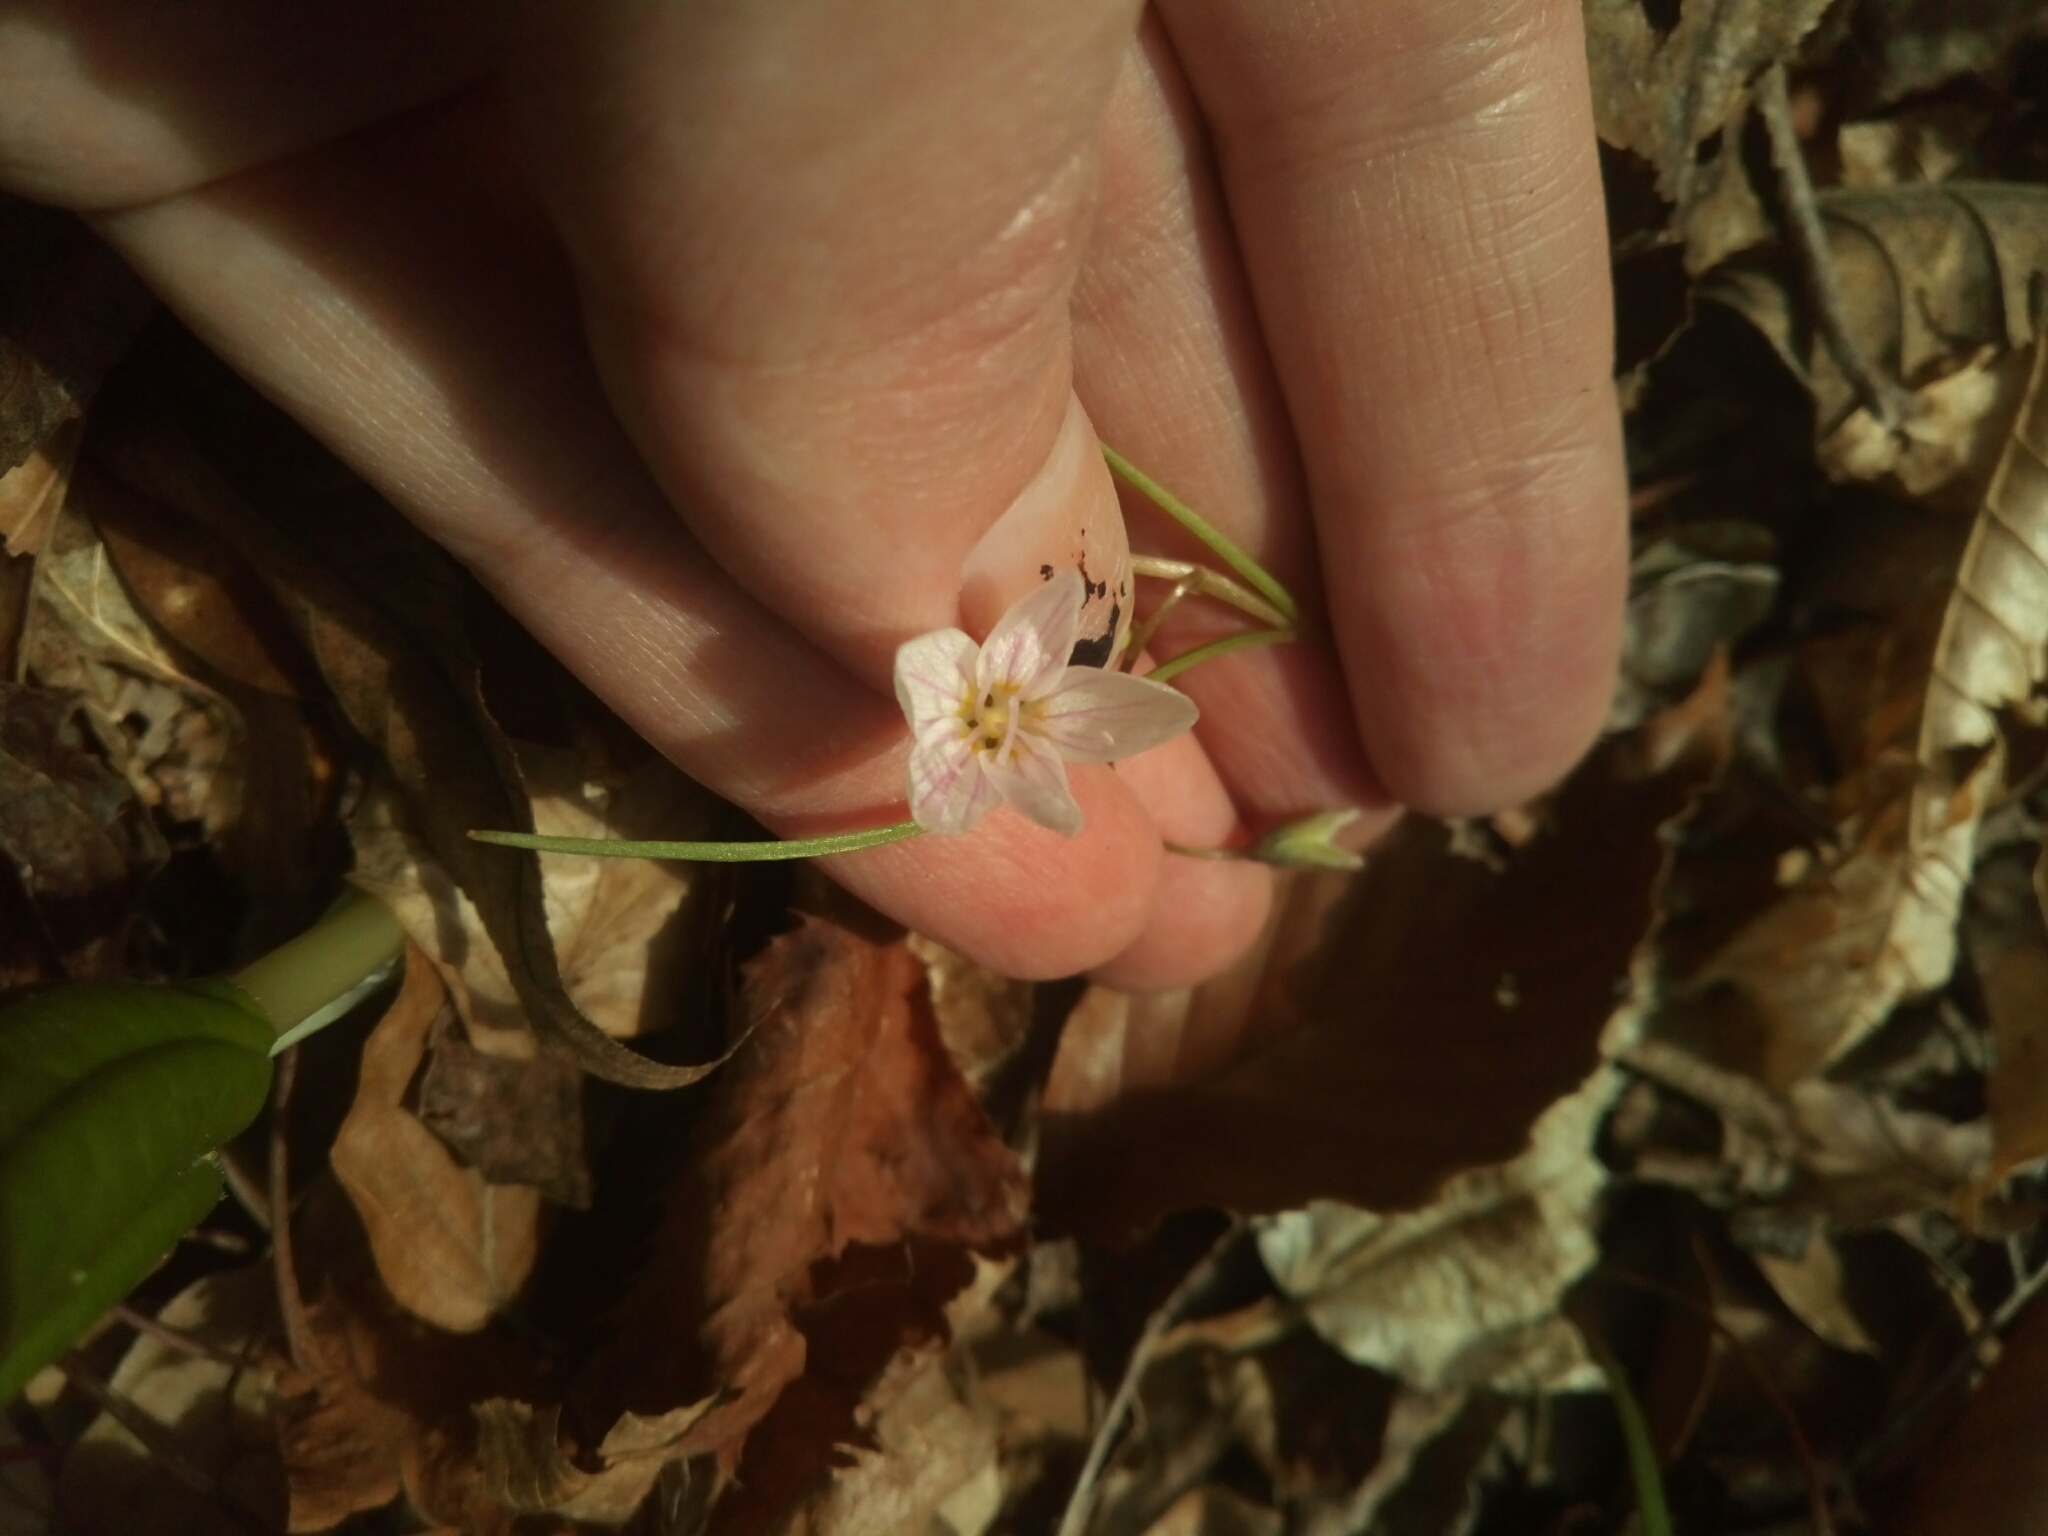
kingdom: Plantae
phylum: Tracheophyta
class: Magnoliopsida
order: Caryophyllales
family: Montiaceae
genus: Claytonia
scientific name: Claytonia virginica
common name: Virginia springbeauty
